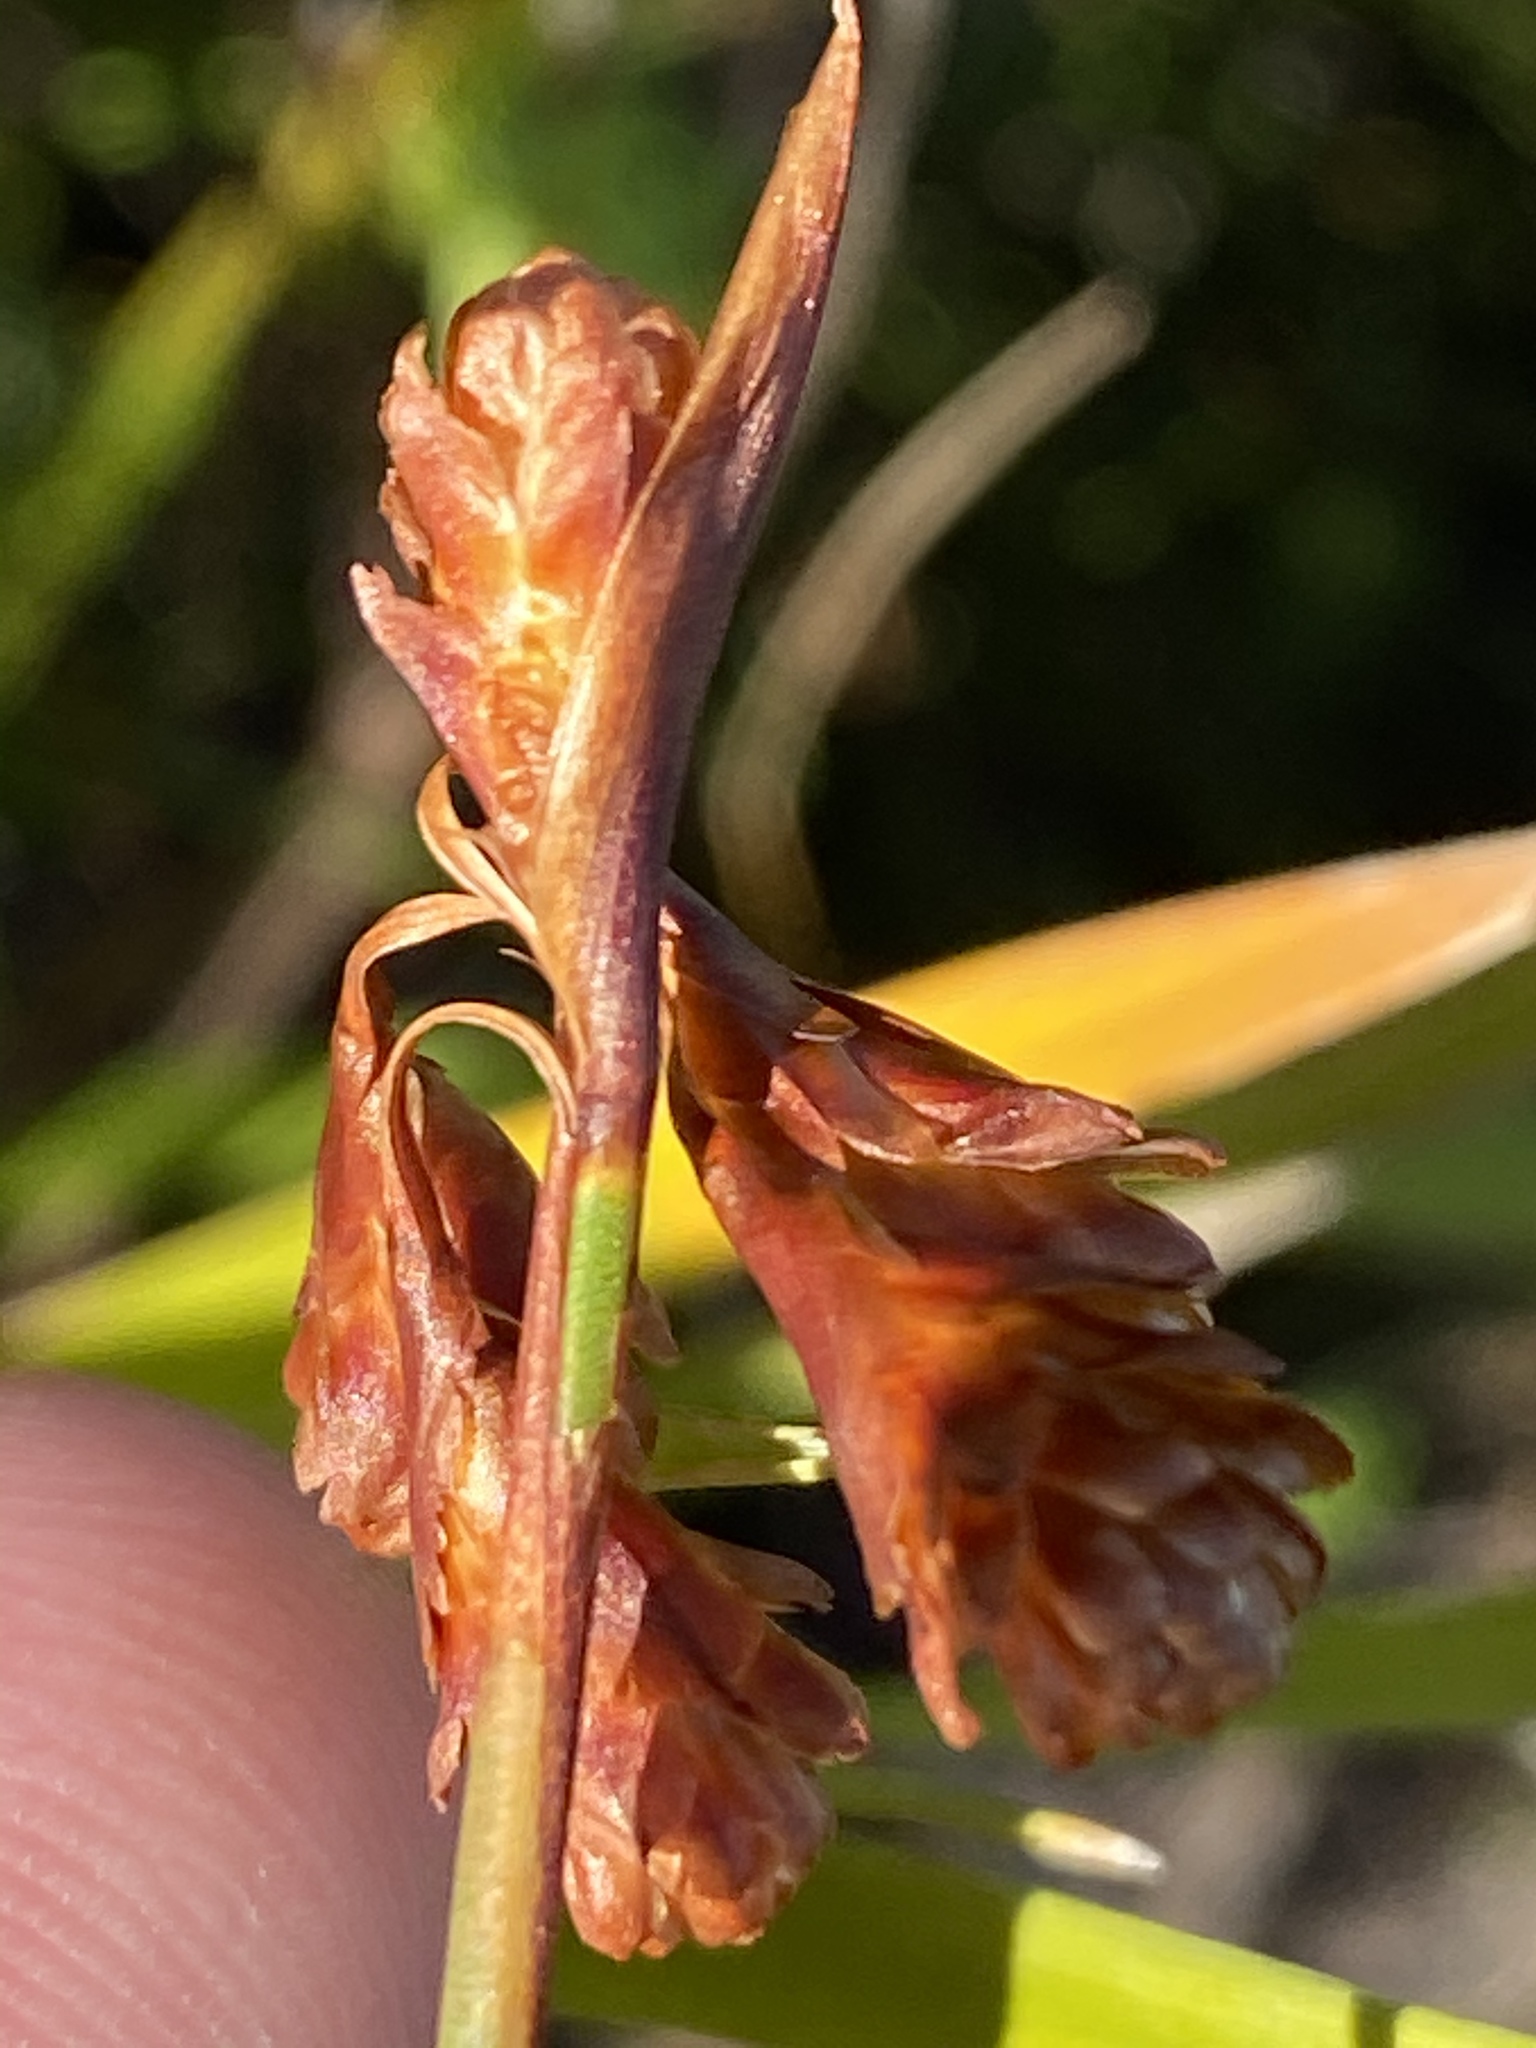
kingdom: Plantae
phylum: Tracheophyta
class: Liliopsida
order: Poales
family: Restionaceae
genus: Staberoha
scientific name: Staberoha cernua
